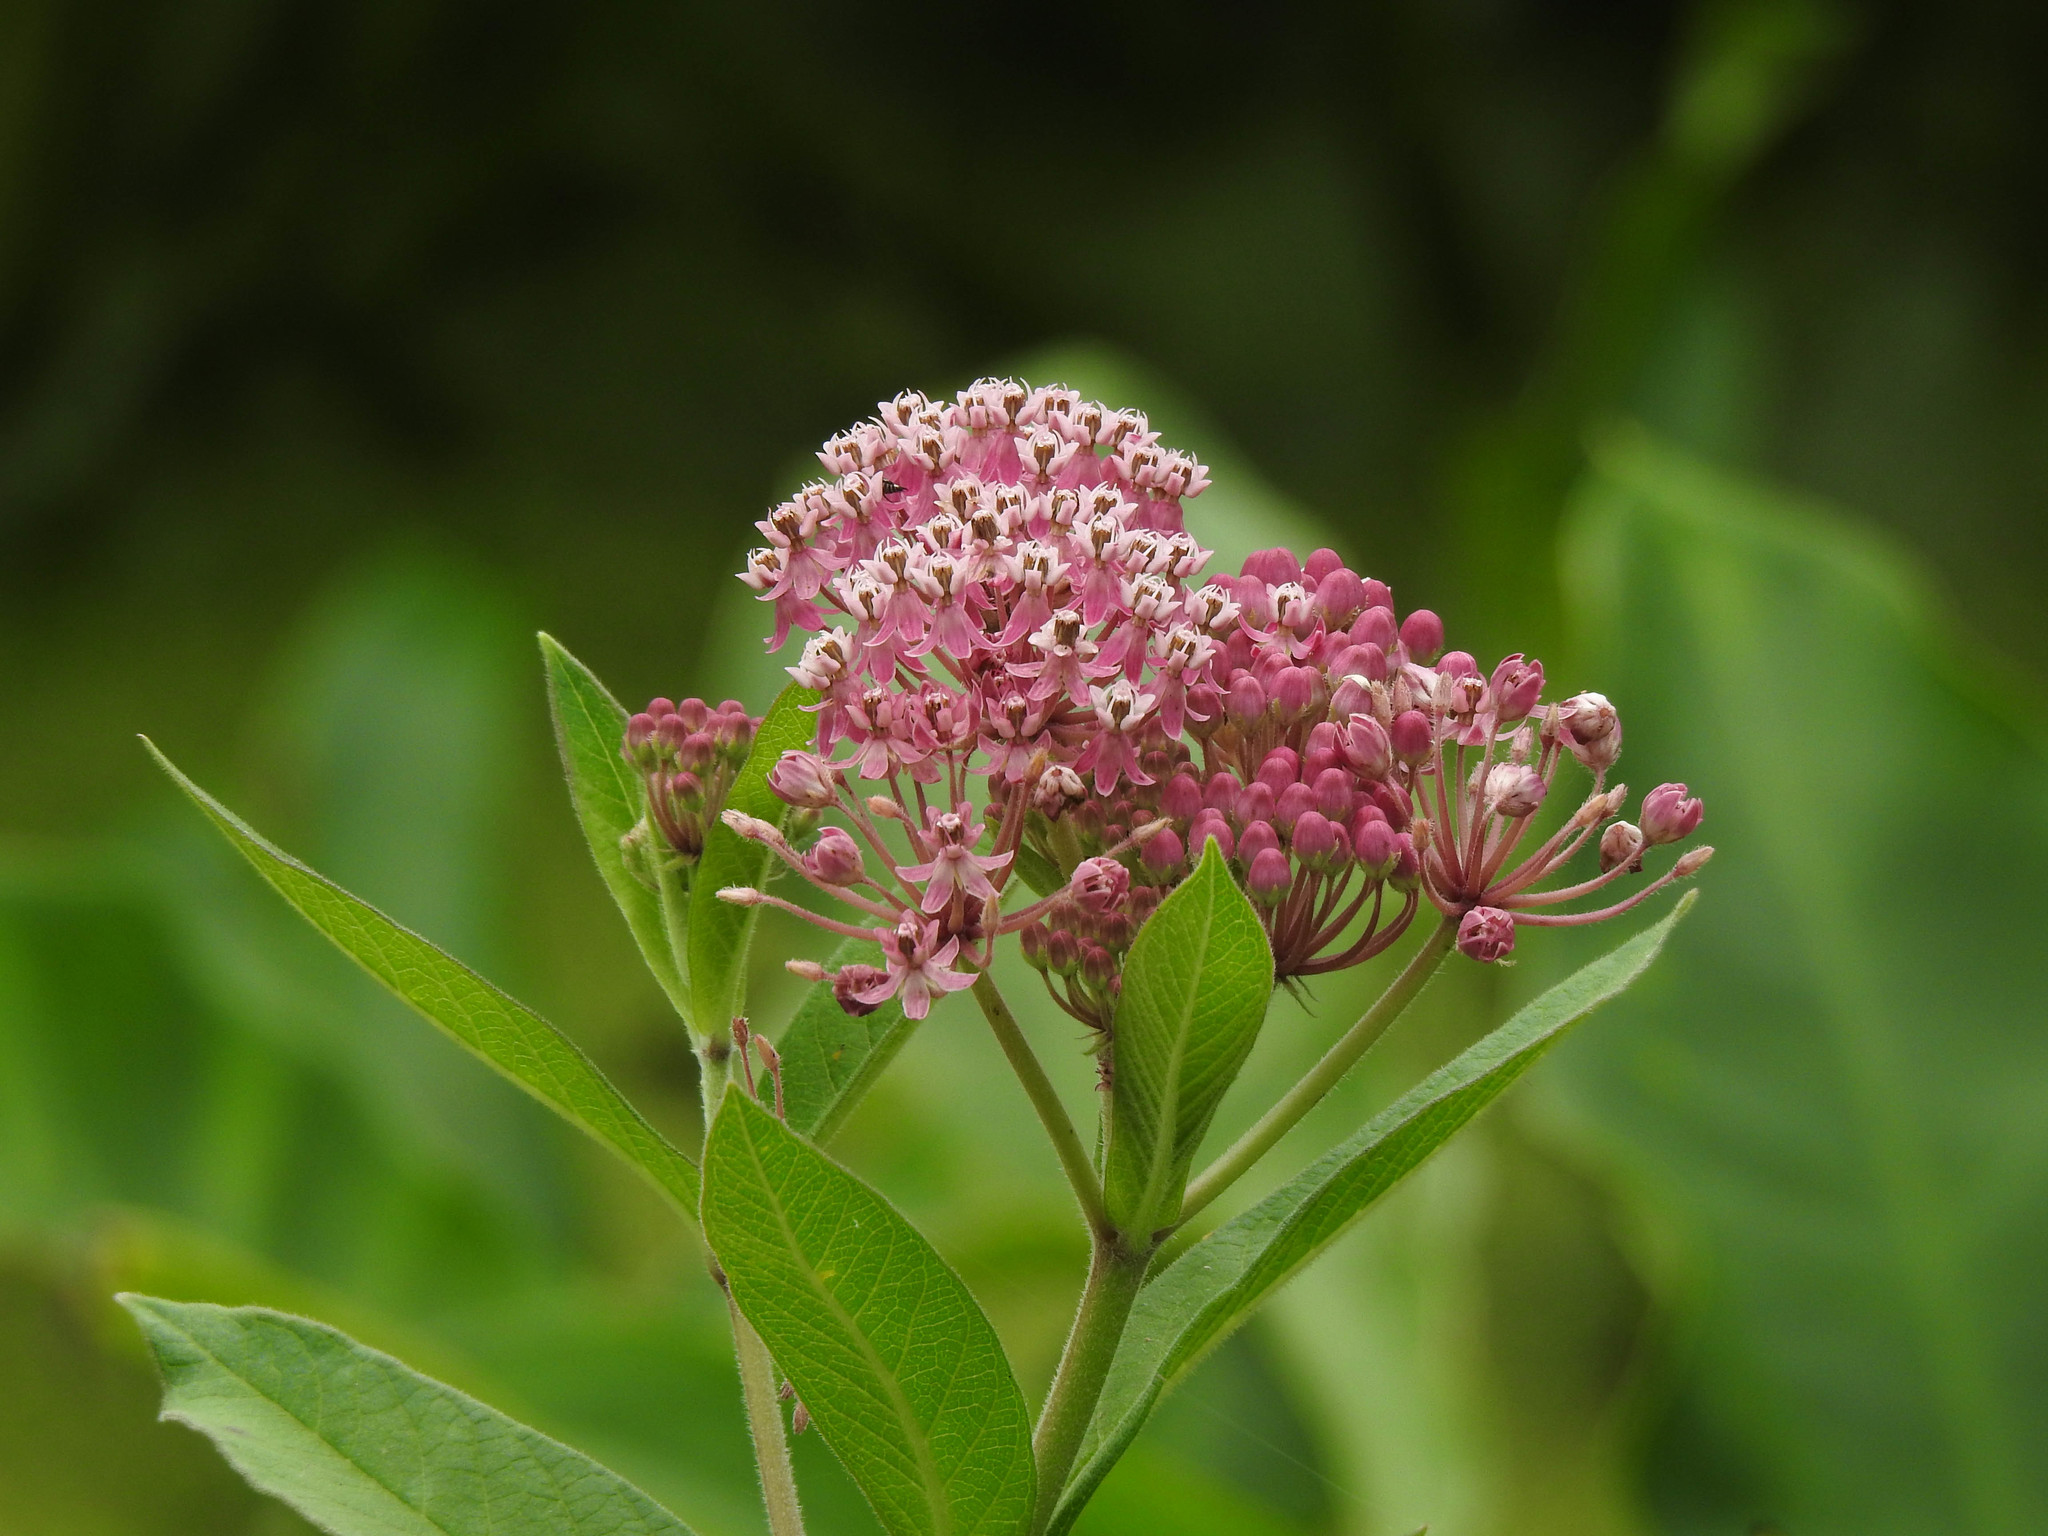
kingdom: Plantae
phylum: Tracheophyta
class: Magnoliopsida
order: Gentianales
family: Apocynaceae
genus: Asclepias
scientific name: Asclepias incarnata
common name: Swamp milkweed
